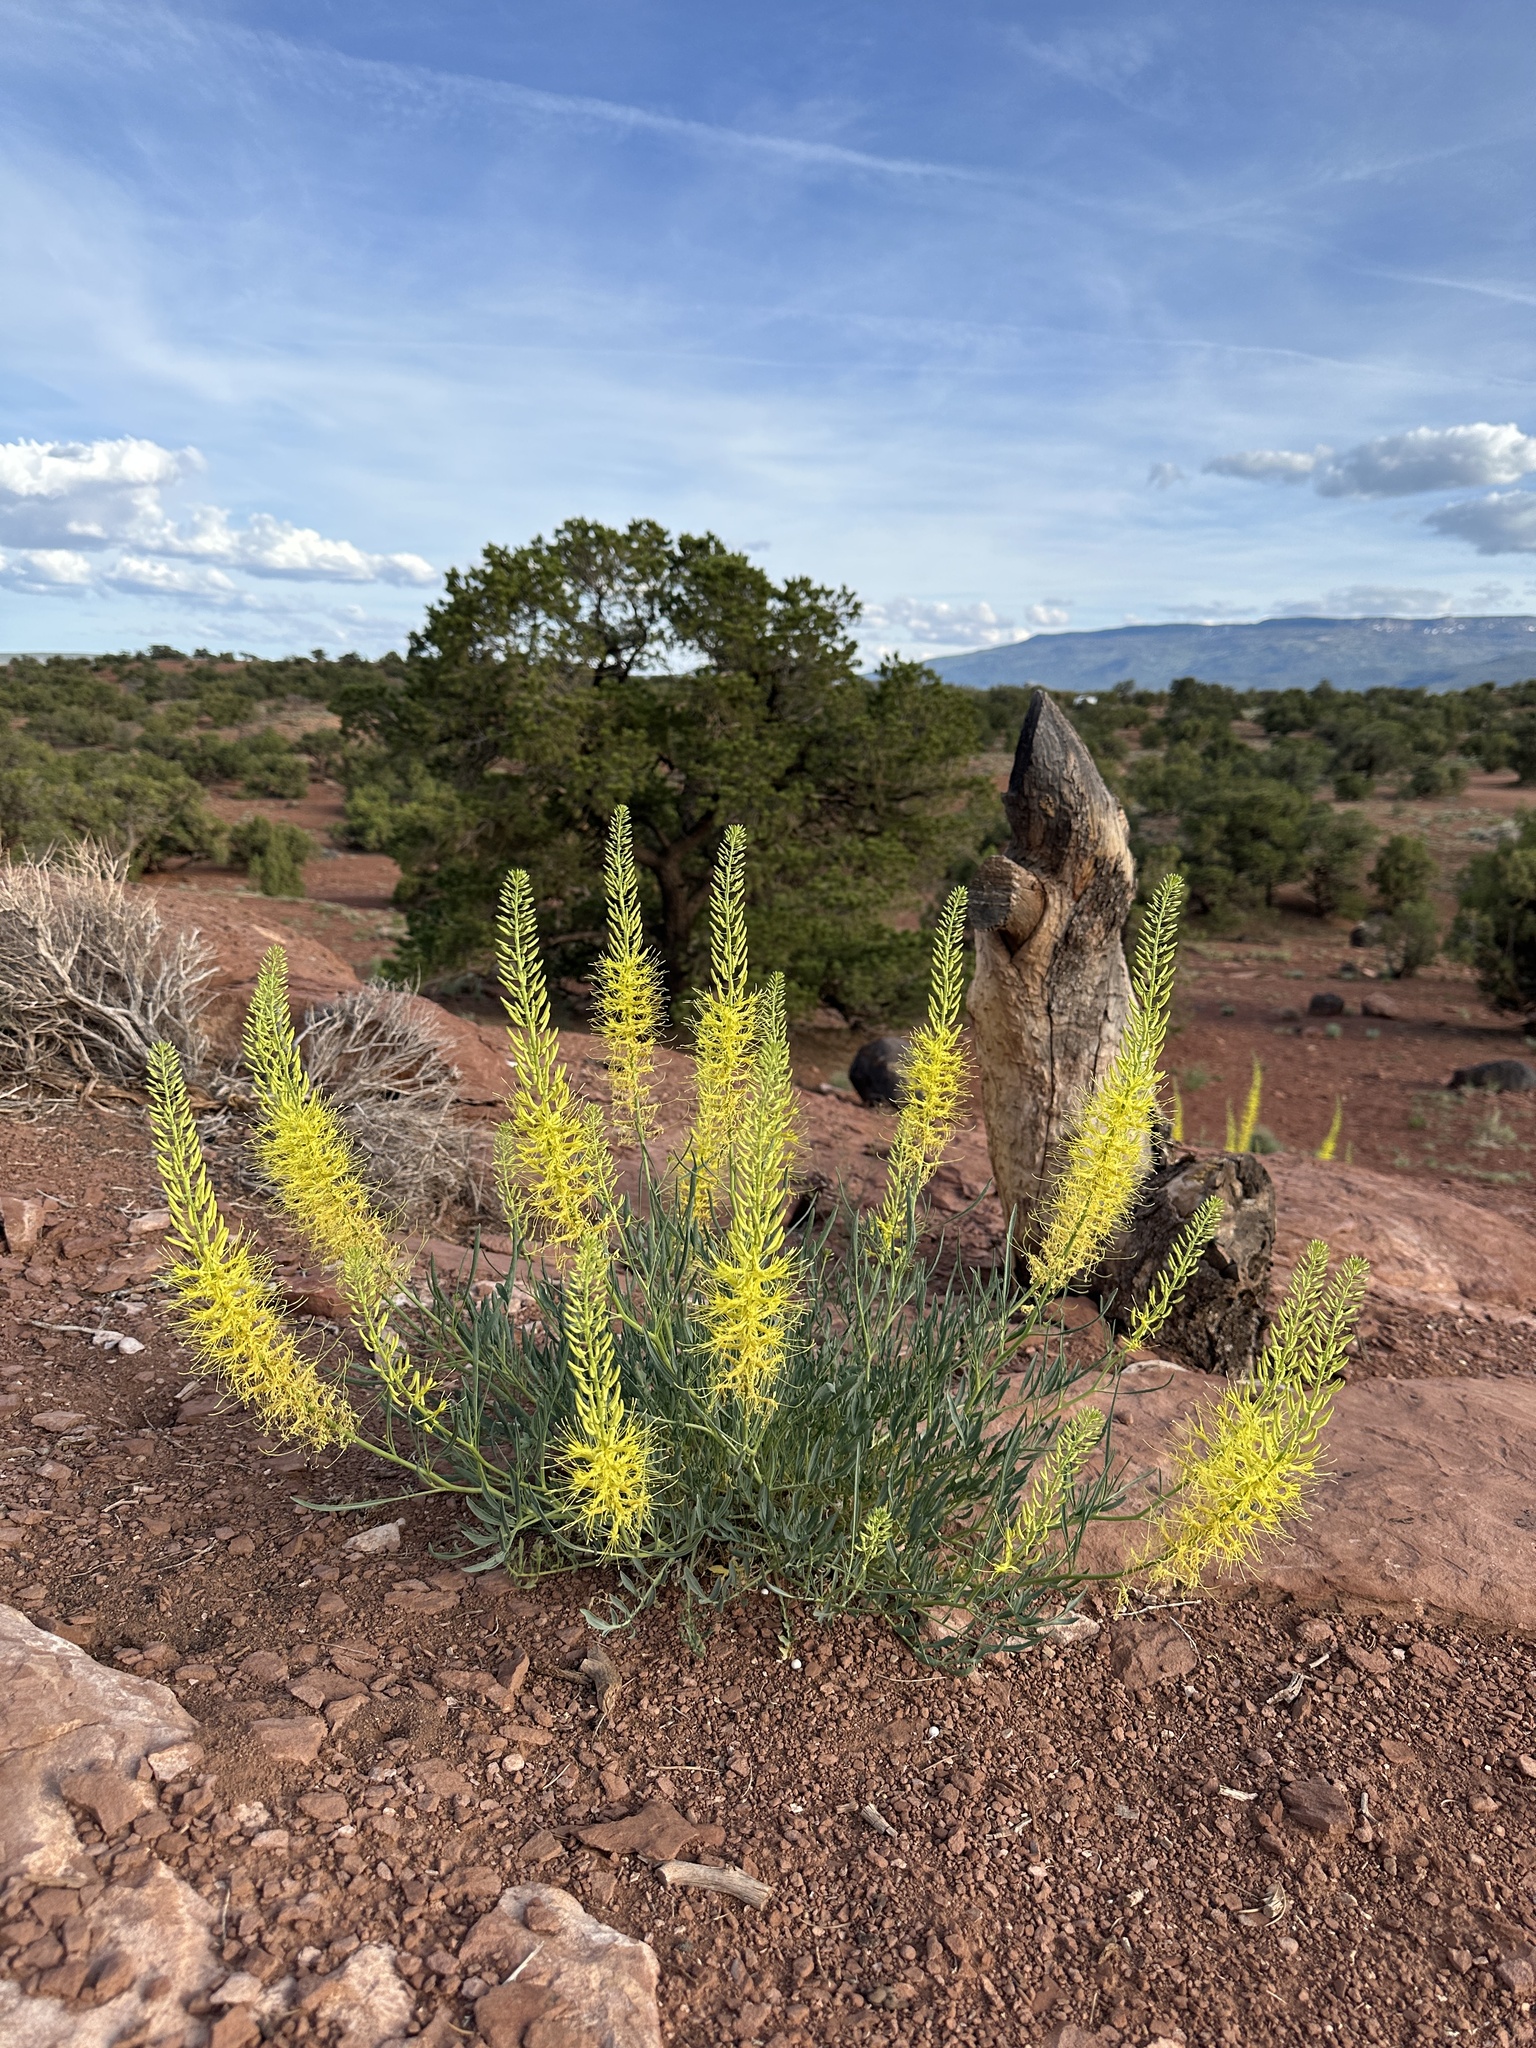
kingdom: Plantae
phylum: Tracheophyta
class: Magnoliopsida
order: Brassicales
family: Brassicaceae
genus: Stanleya
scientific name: Stanleya pinnata
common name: Prince's-plume
